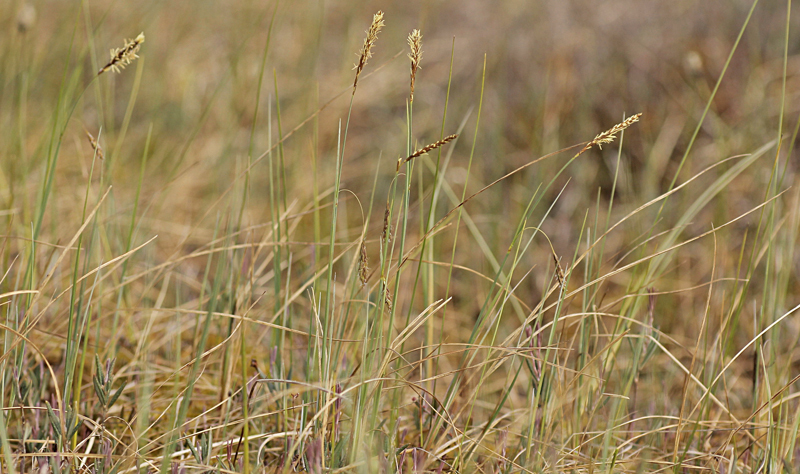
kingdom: Plantae
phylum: Tracheophyta
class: Liliopsida
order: Poales
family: Cyperaceae
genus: Carex
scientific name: Carex limosa
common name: Bog sedge
